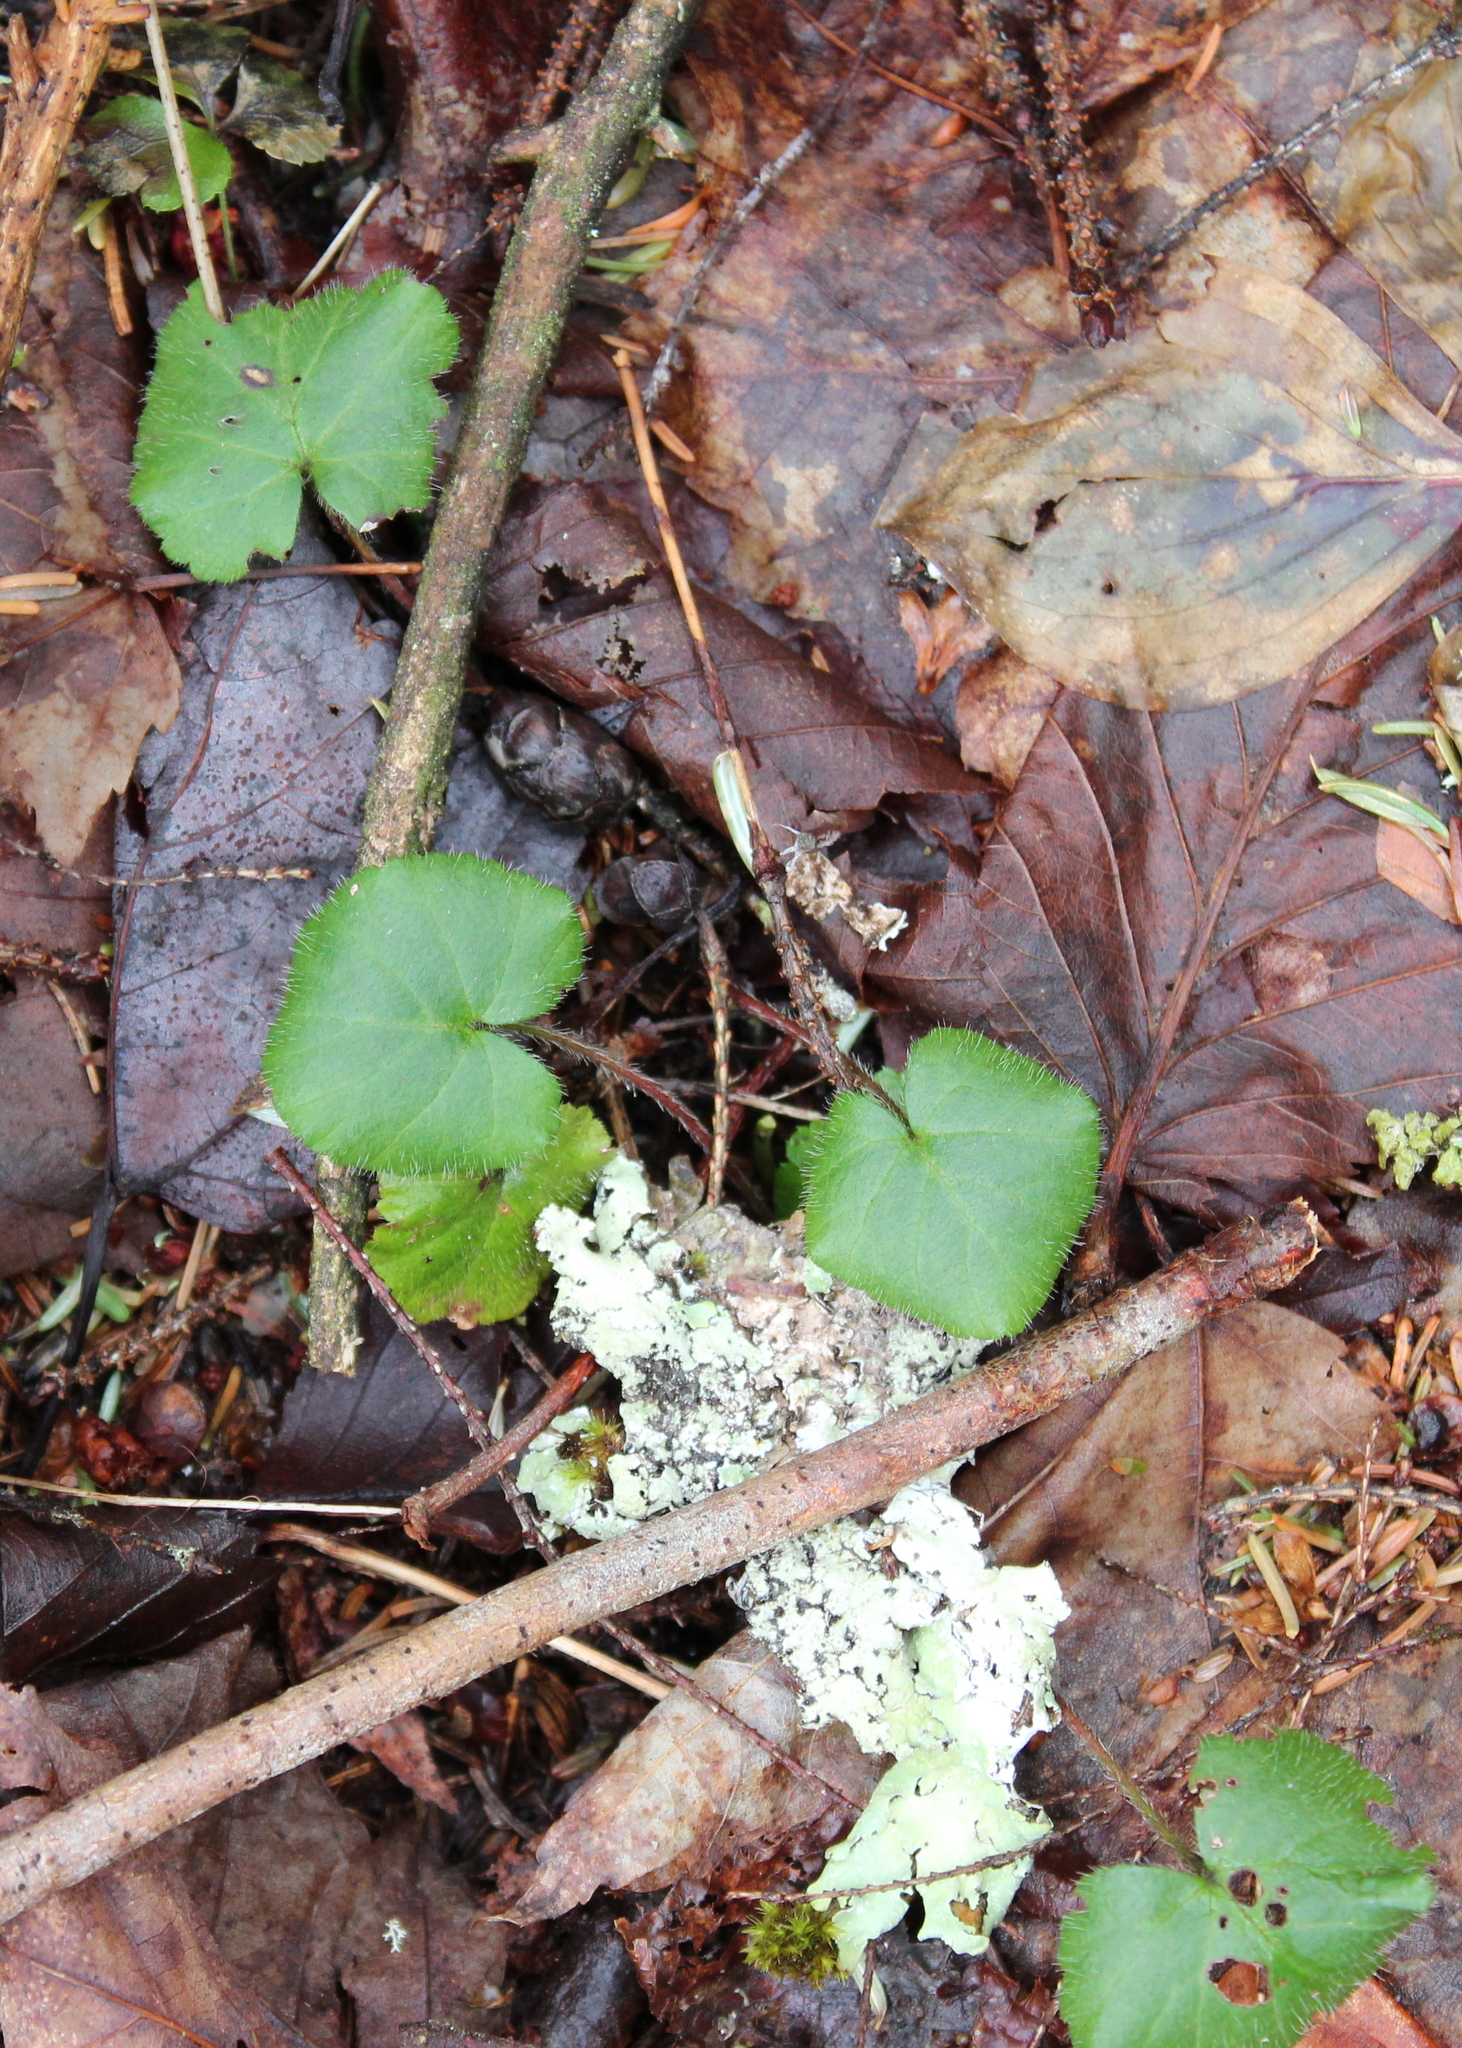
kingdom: Plantae
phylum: Tracheophyta
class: Magnoliopsida
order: Rosales
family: Rosaceae
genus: Dalibarda
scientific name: Dalibarda repens
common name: Dewdrop
